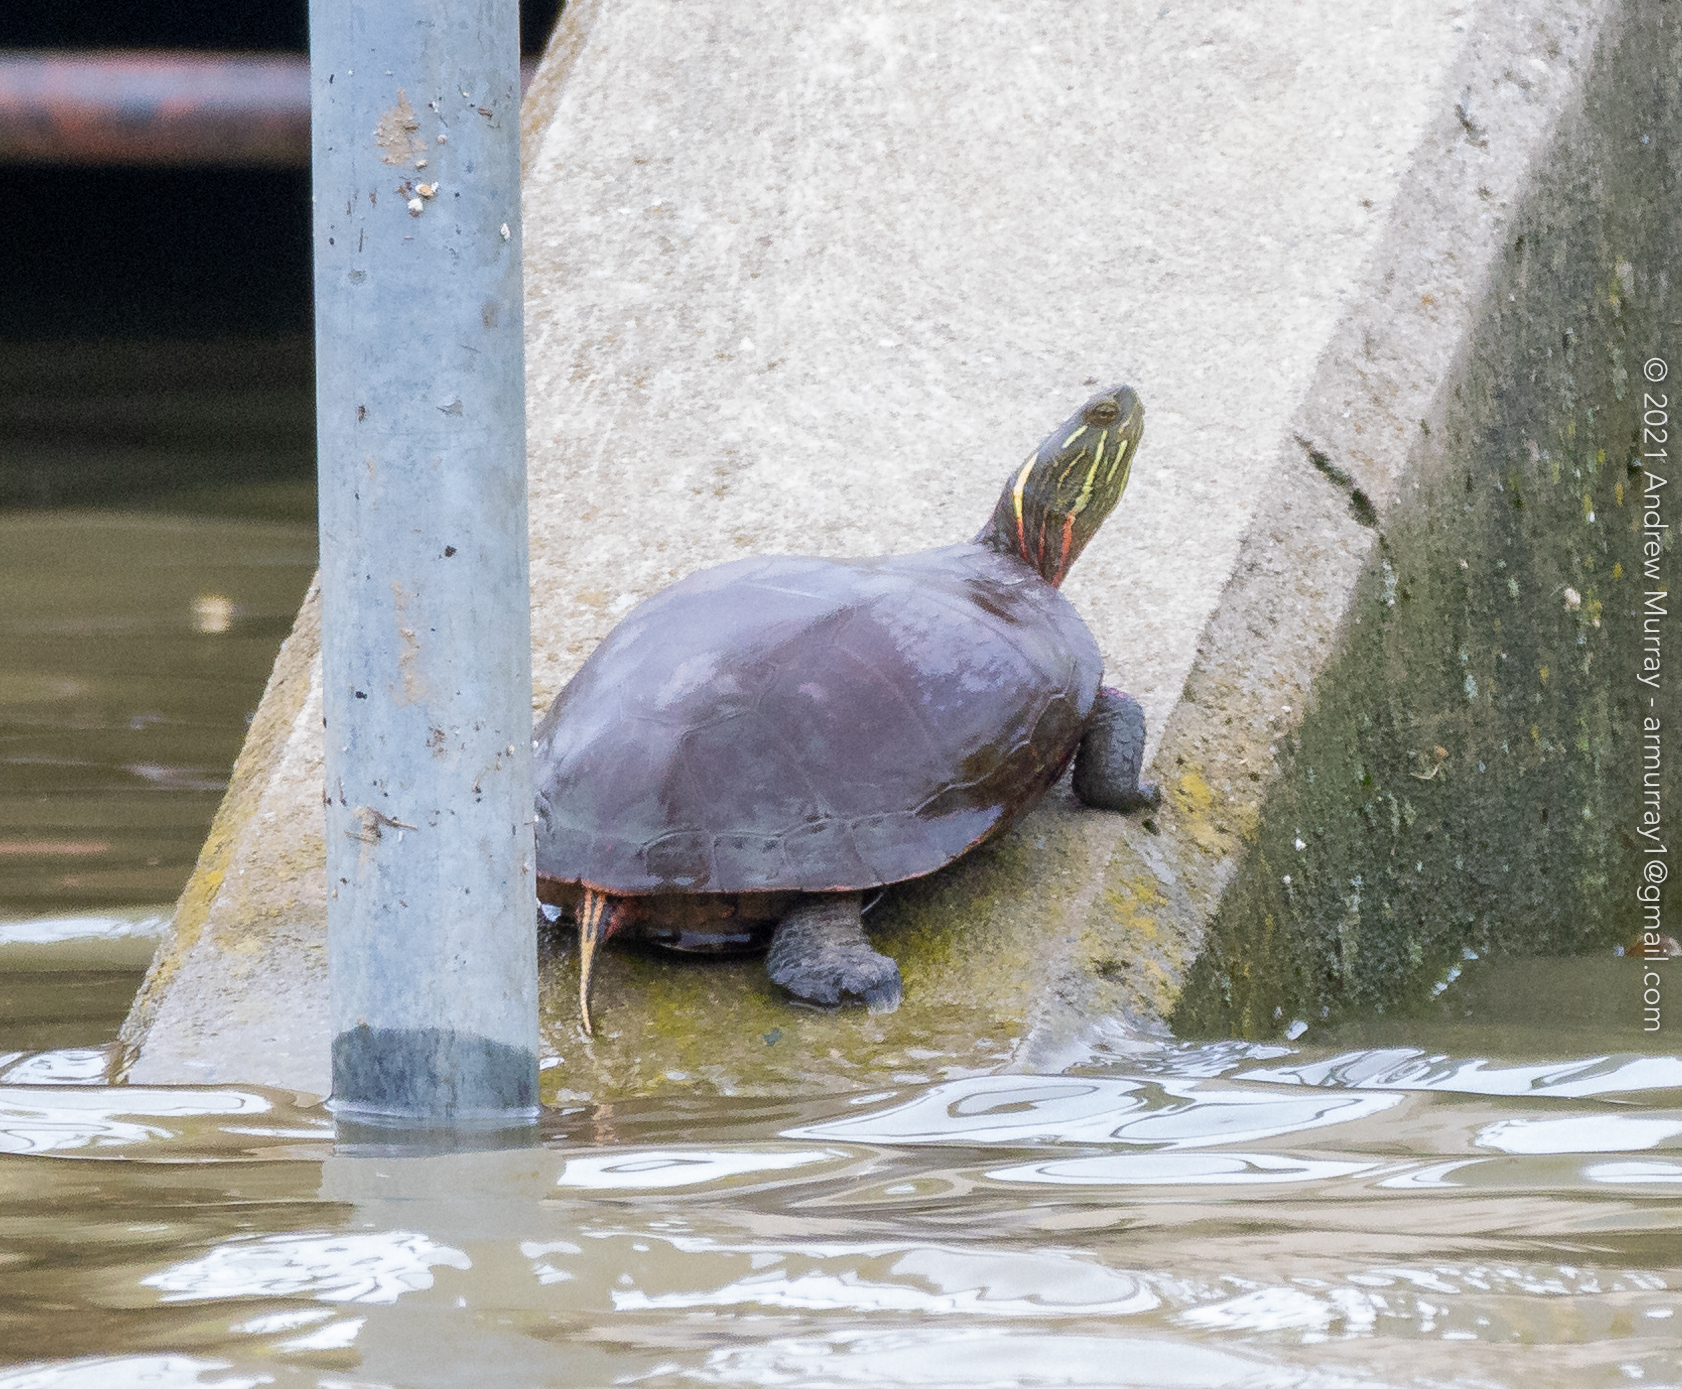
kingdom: Animalia
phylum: Chordata
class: Testudines
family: Emydidae
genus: Chrysemys
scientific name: Chrysemys picta
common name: Painted turtle
